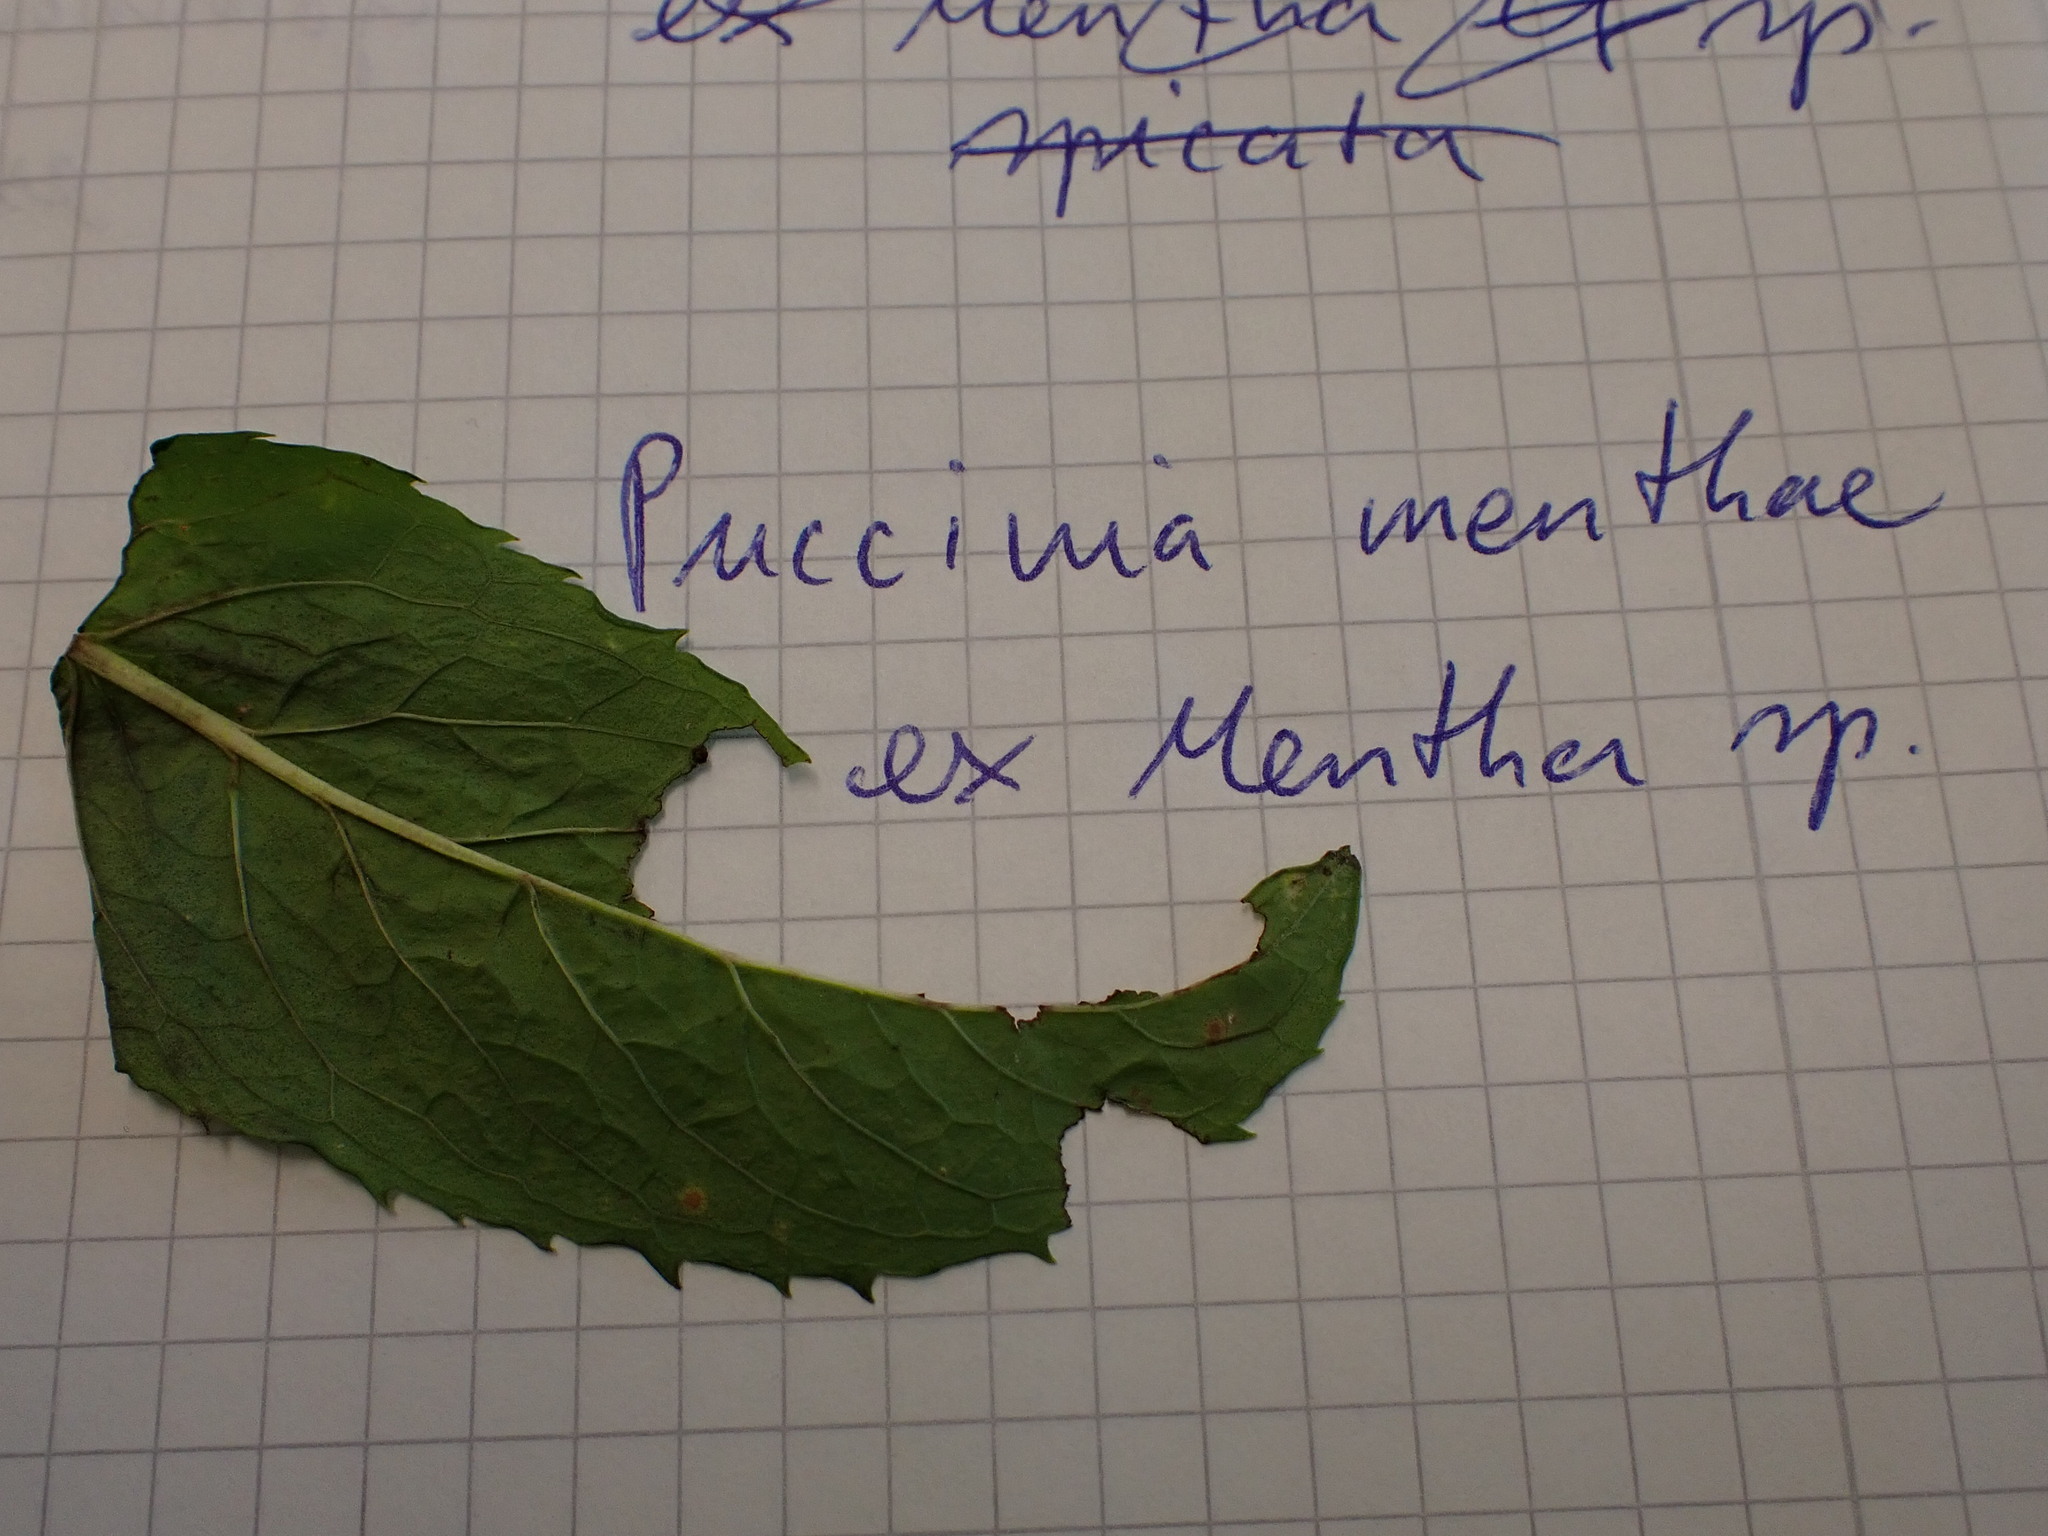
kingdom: Fungi
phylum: Basidiomycota
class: Pucciniomycetes
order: Pucciniales
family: Pucciniaceae
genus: Puccinia
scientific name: Puccinia menthae
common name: Mint rust
